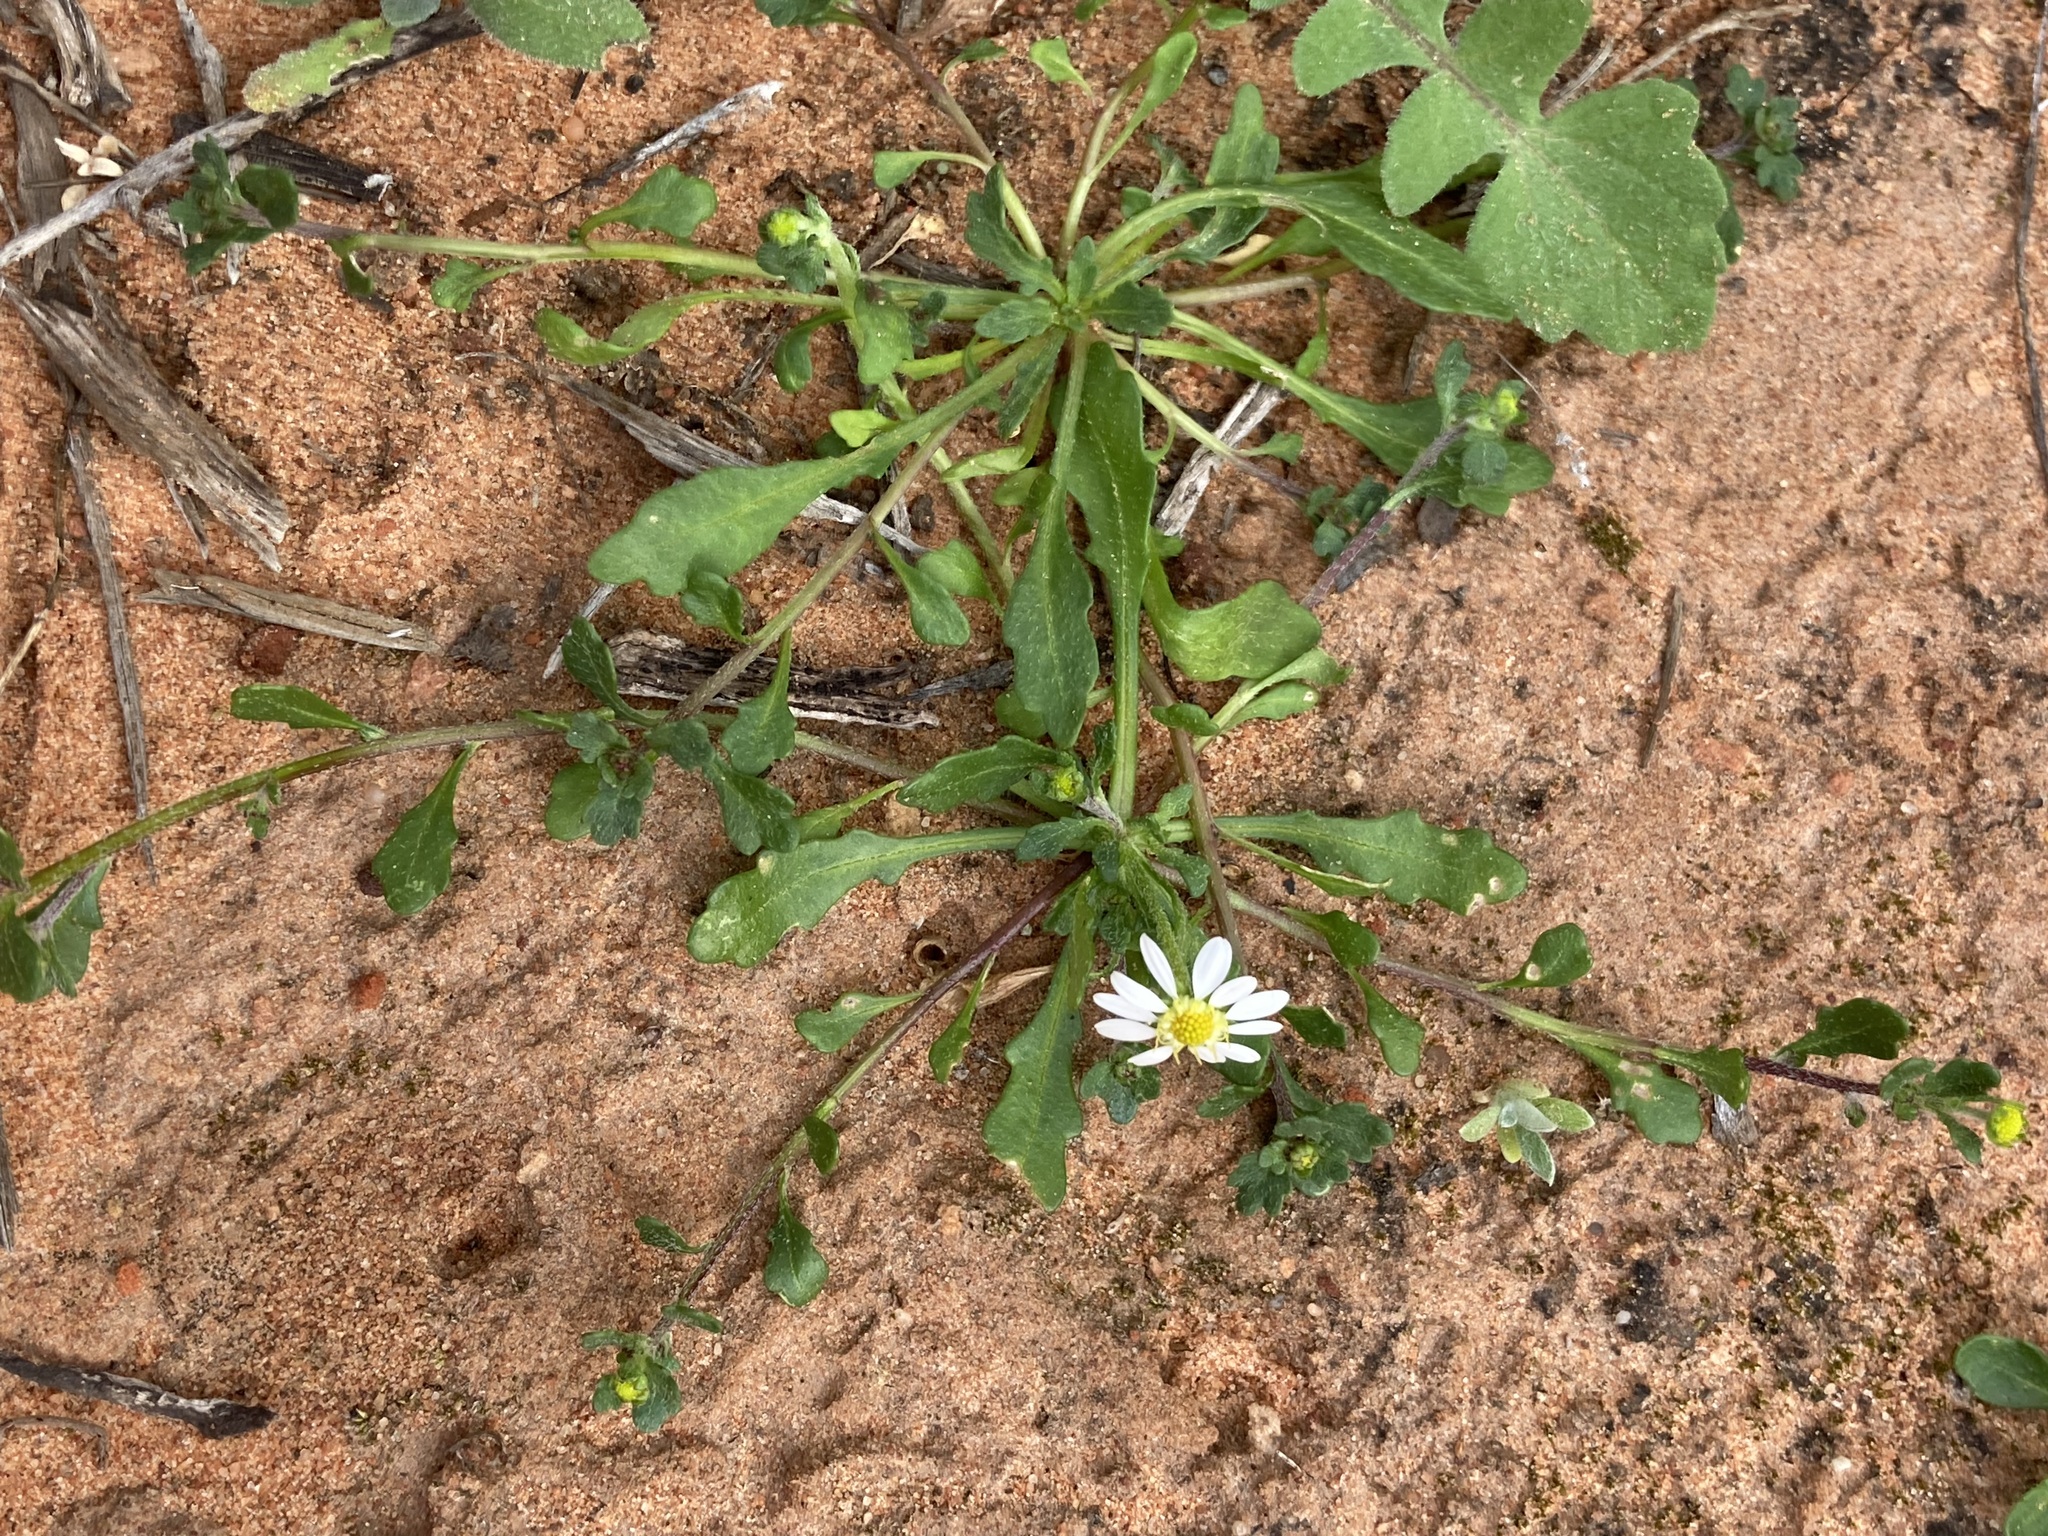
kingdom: Plantae
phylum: Tracheophyta
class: Magnoliopsida
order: Asterales
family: Asteraceae
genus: Calotis
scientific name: Calotis multicaulis
